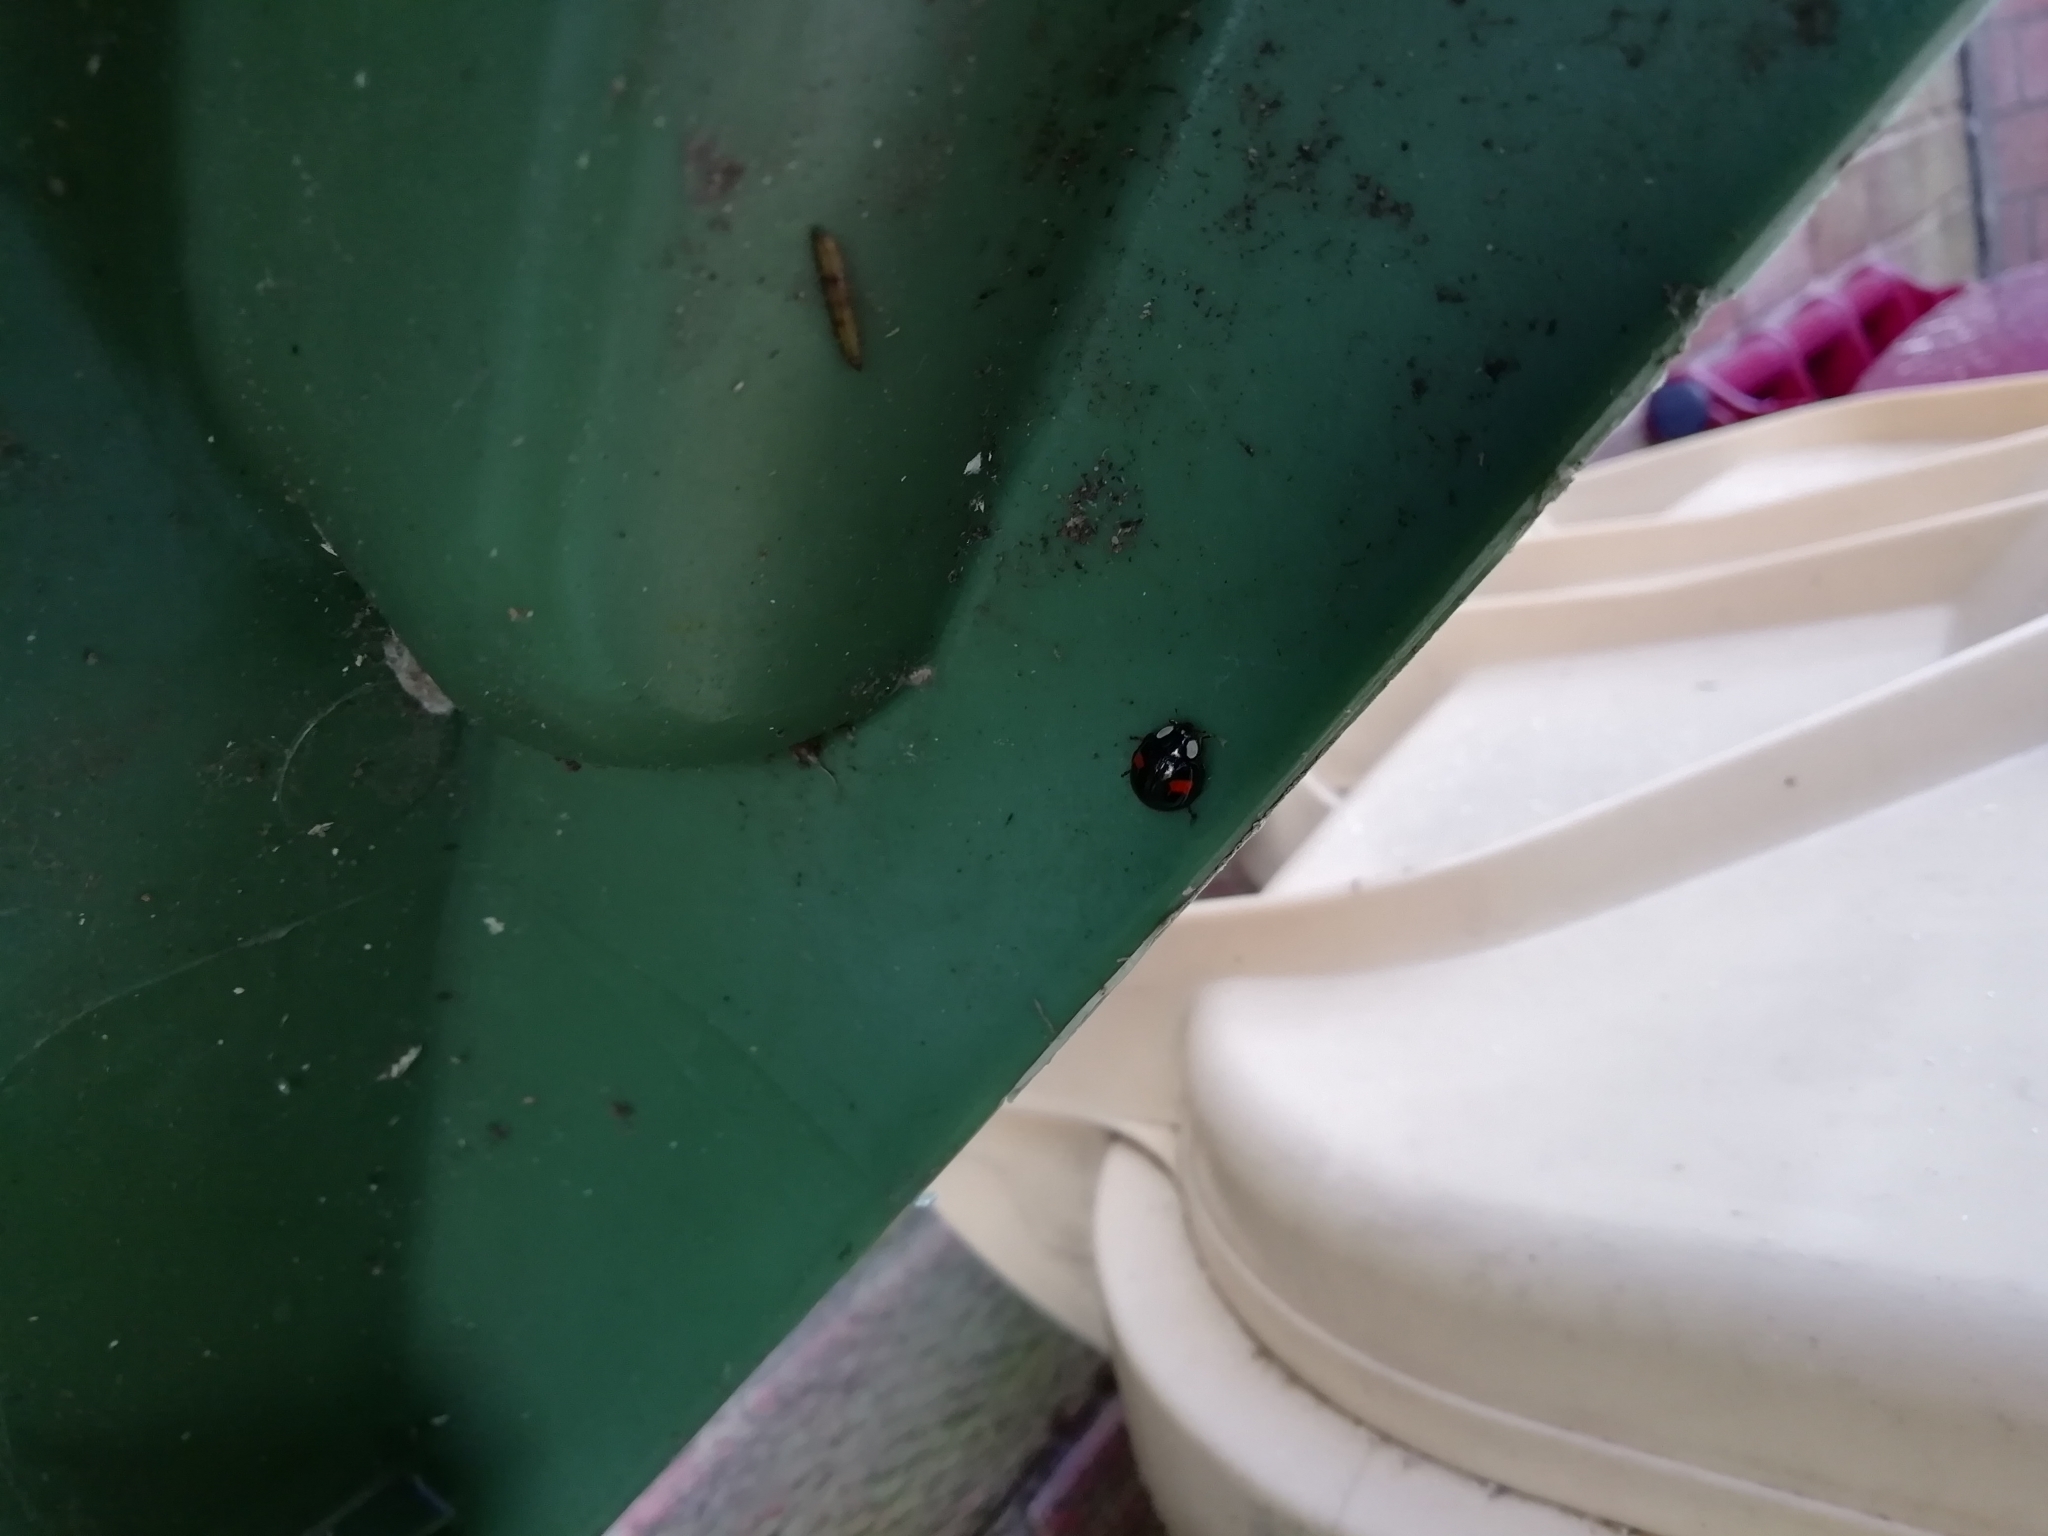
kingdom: Animalia
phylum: Arthropoda
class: Insecta
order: Coleoptera
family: Coccinellidae
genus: Harmonia
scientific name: Harmonia axyridis
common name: Harlequin ladybird
